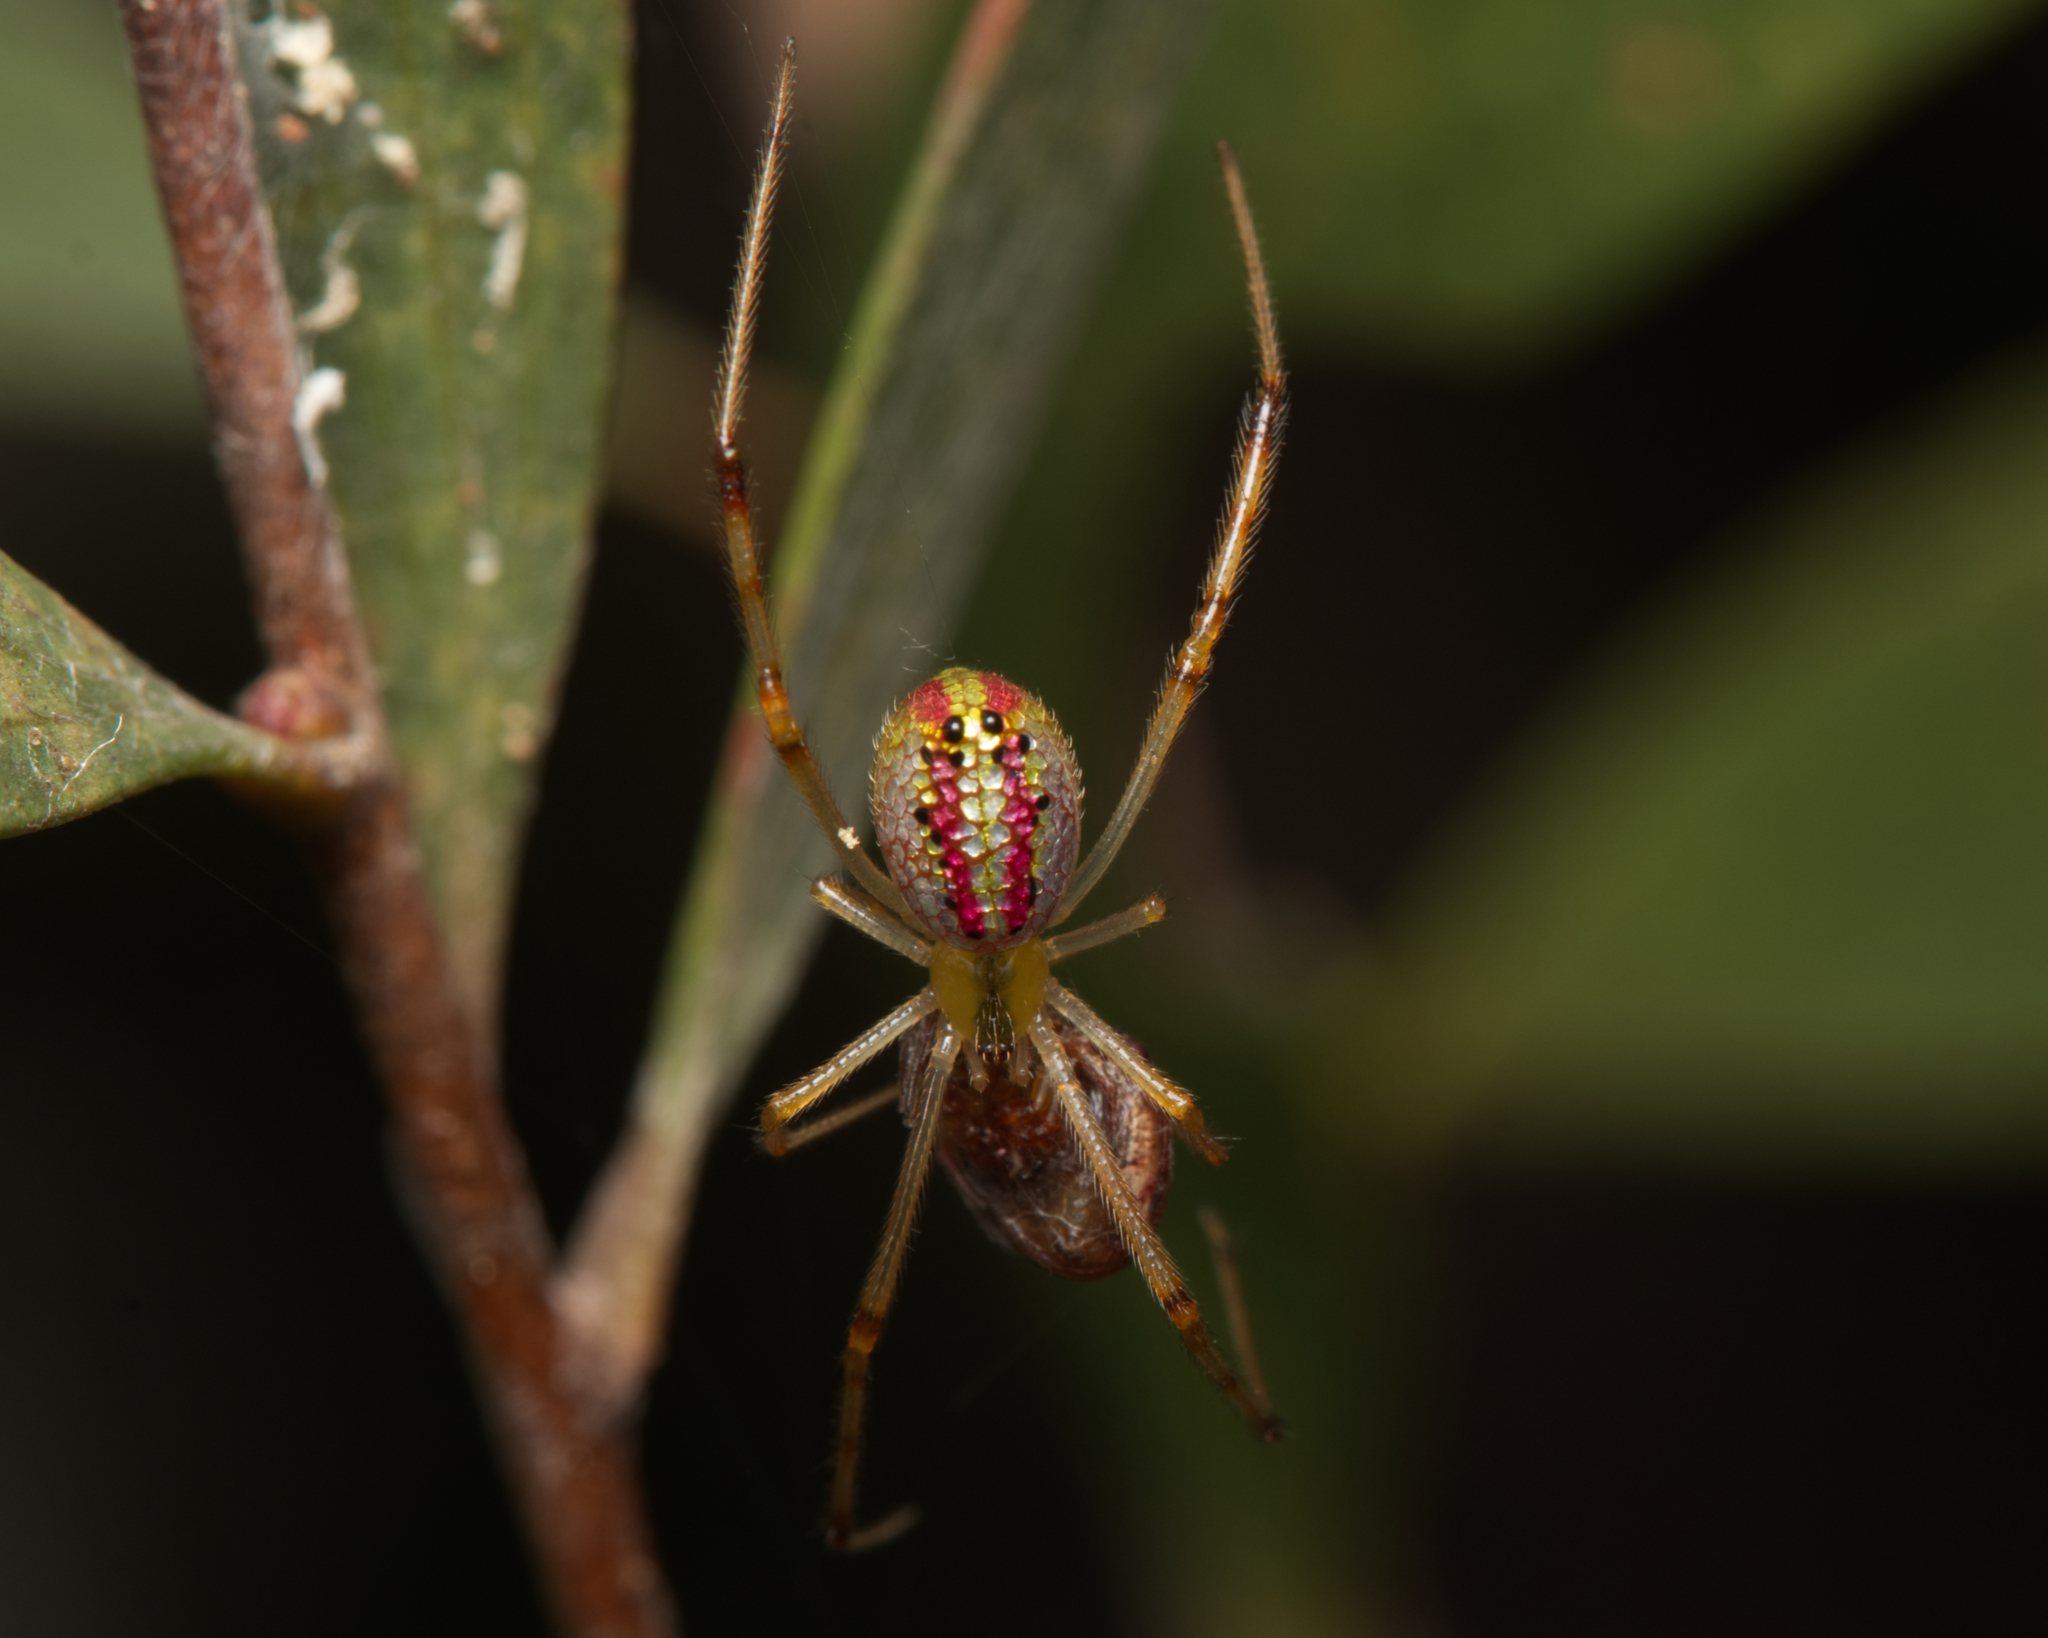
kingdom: Animalia
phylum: Arthropoda
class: Arachnida
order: Araneae
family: Theridiidae
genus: Thwaitesia
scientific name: Thwaitesia nigronodosa
